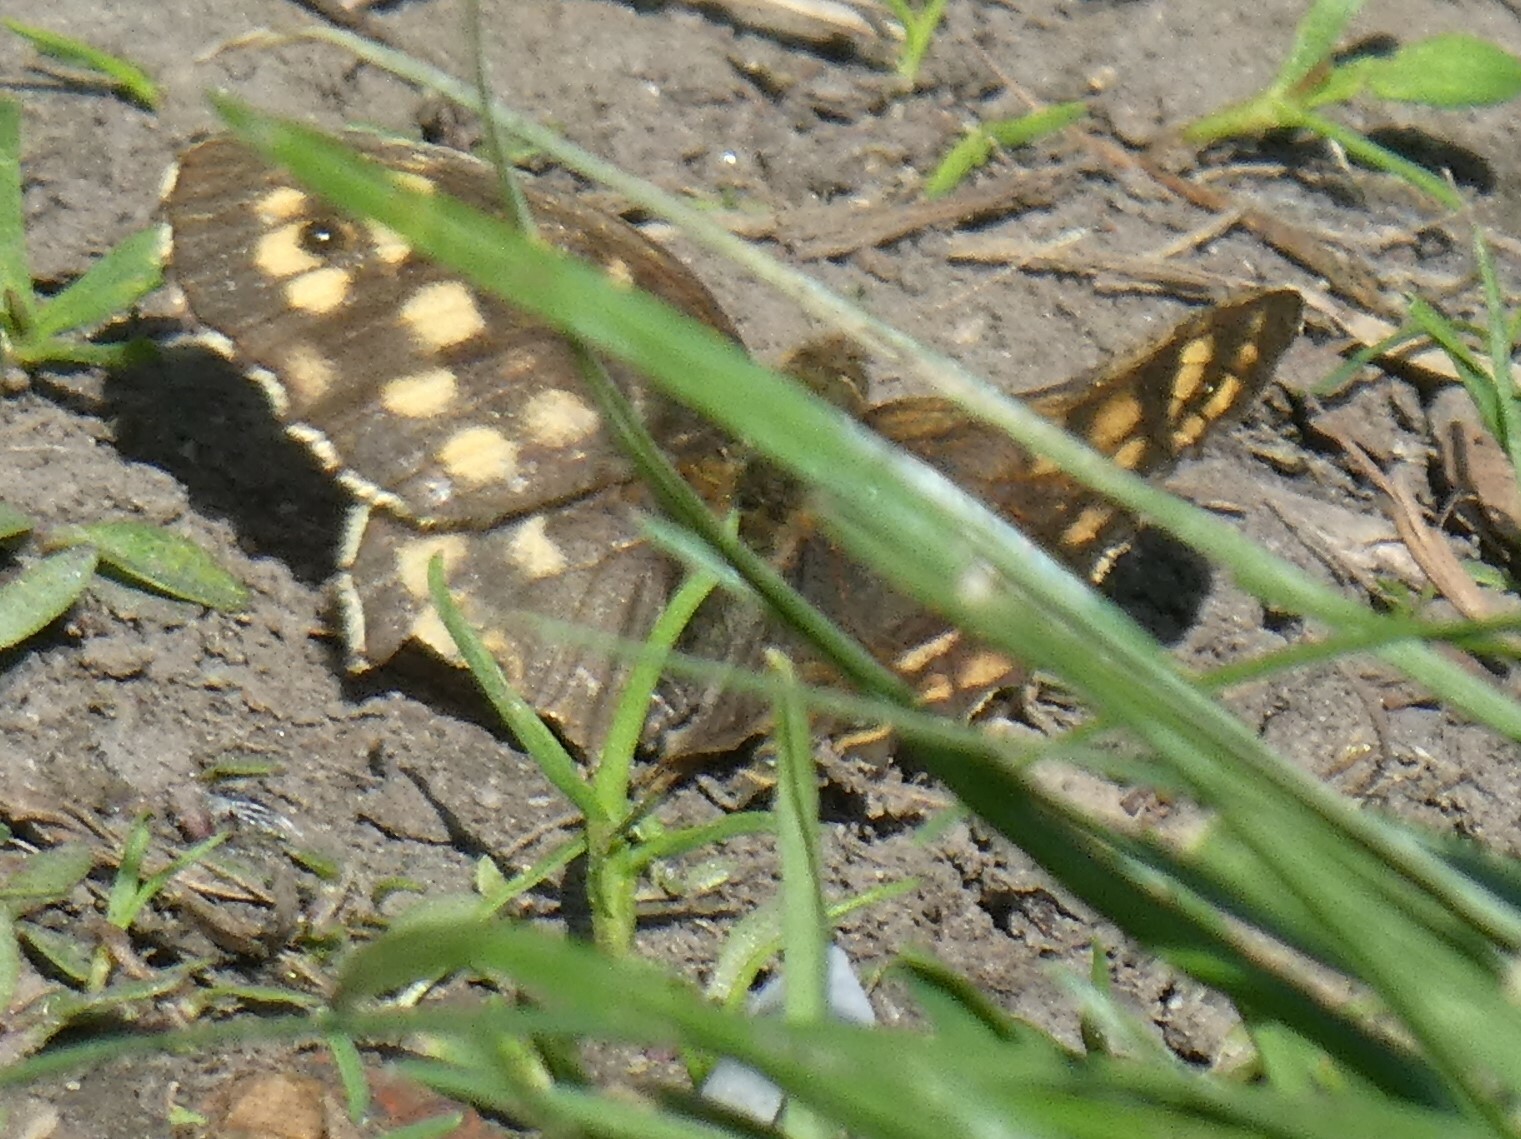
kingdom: Animalia
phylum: Arthropoda
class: Insecta
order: Lepidoptera
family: Nymphalidae
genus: Pararge
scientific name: Pararge aegeria
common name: Speckled wood
